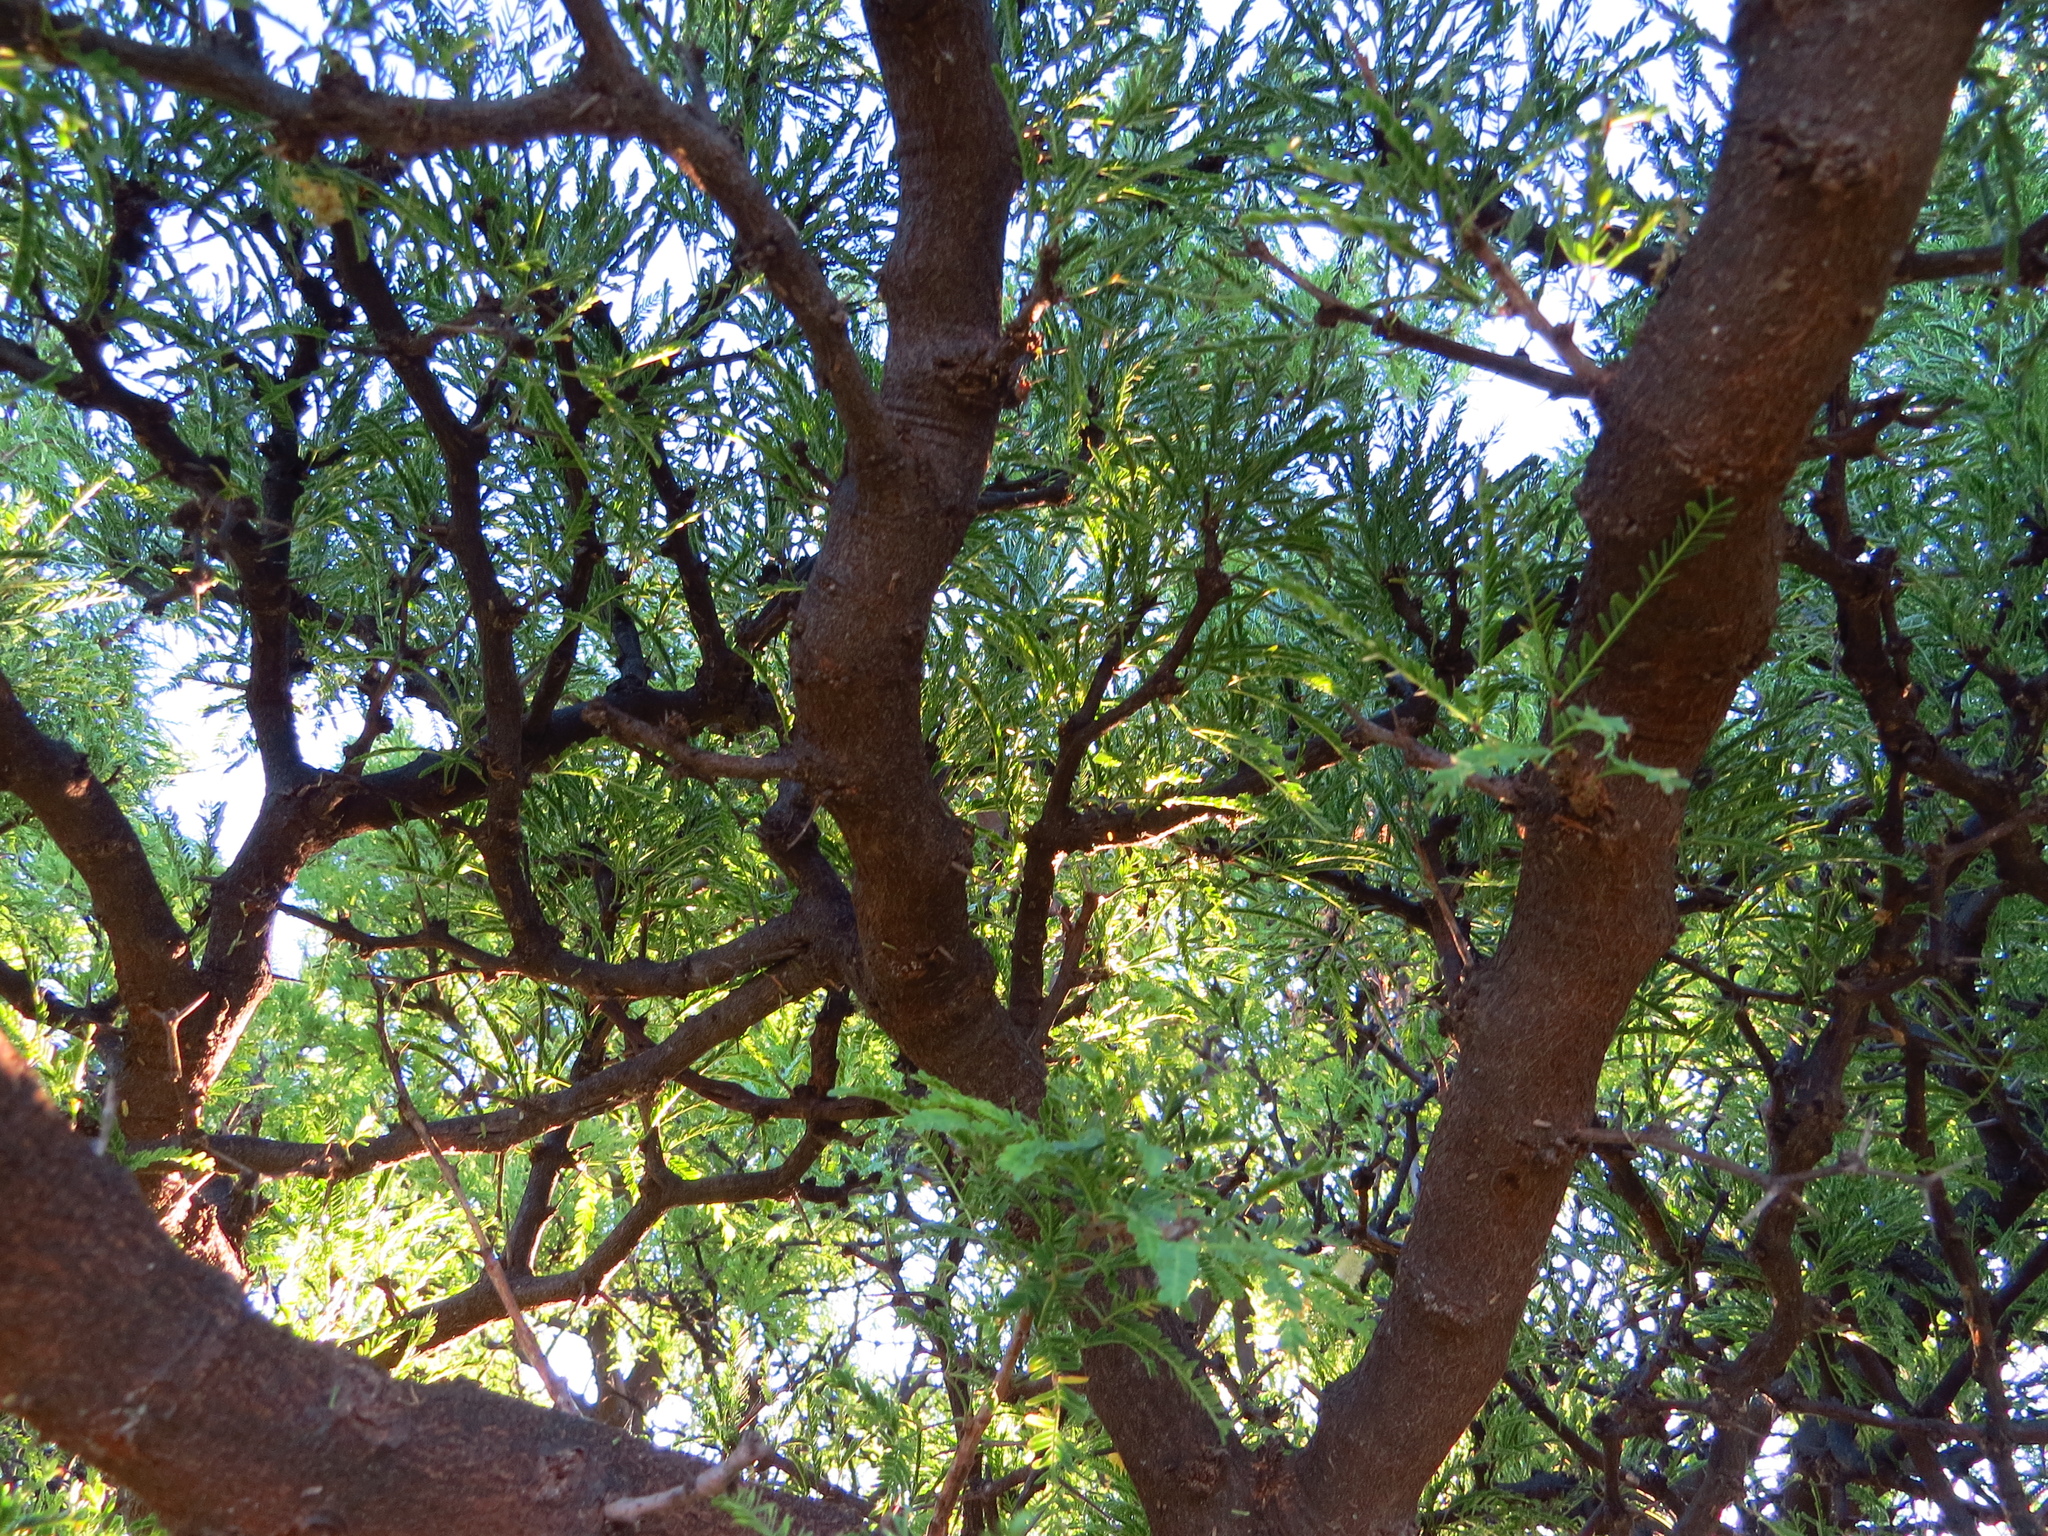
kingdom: Plantae
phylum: Tracheophyta
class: Magnoliopsida
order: Fabales
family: Fabaceae
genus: Prosopis
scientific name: Prosopis flexuosa
